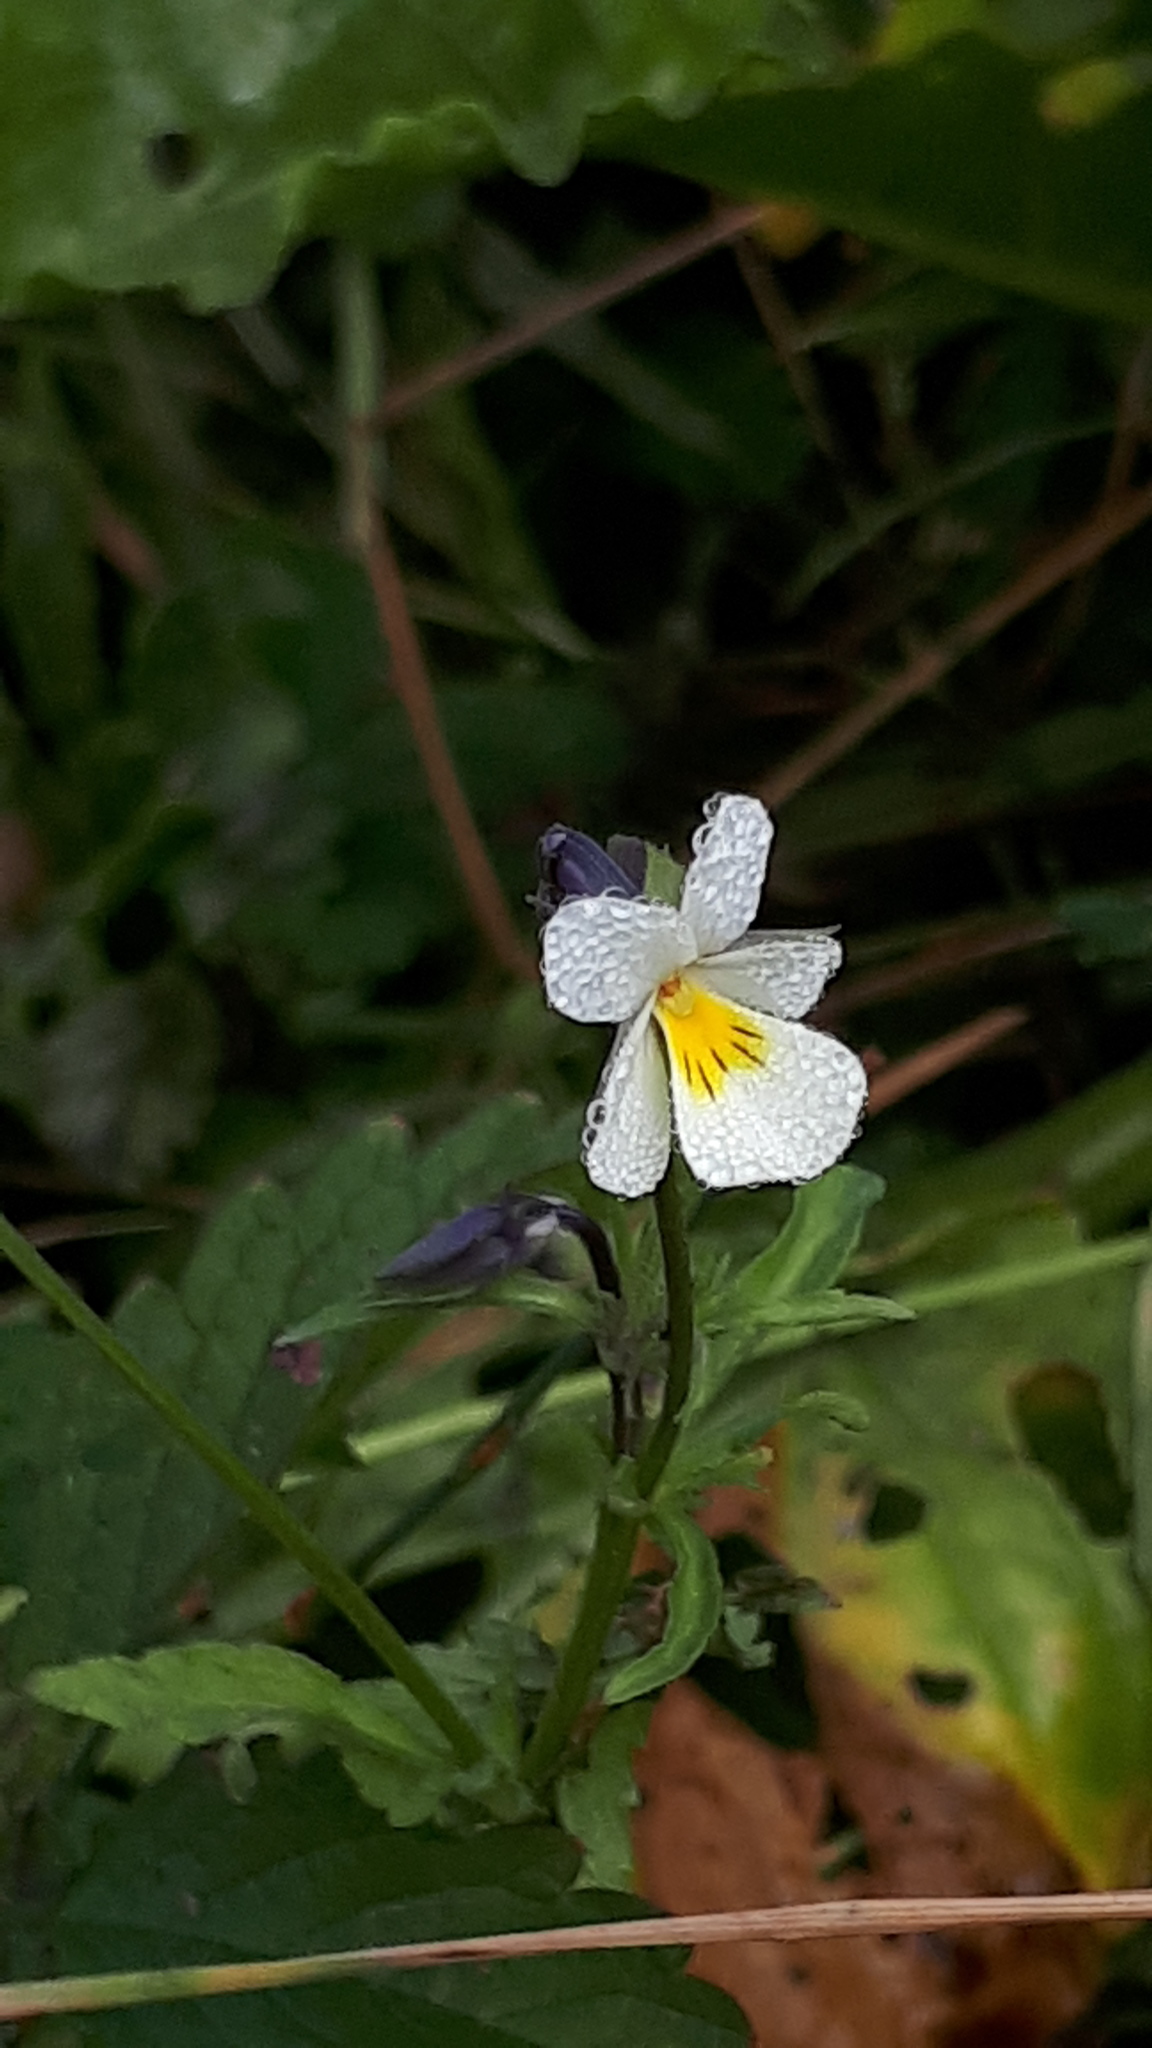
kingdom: Plantae
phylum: Tracheophyta
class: Magnoliopsida
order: Malpighiales
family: Violaceae
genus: Viola
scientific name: Viola arvensis
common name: Field pansy
